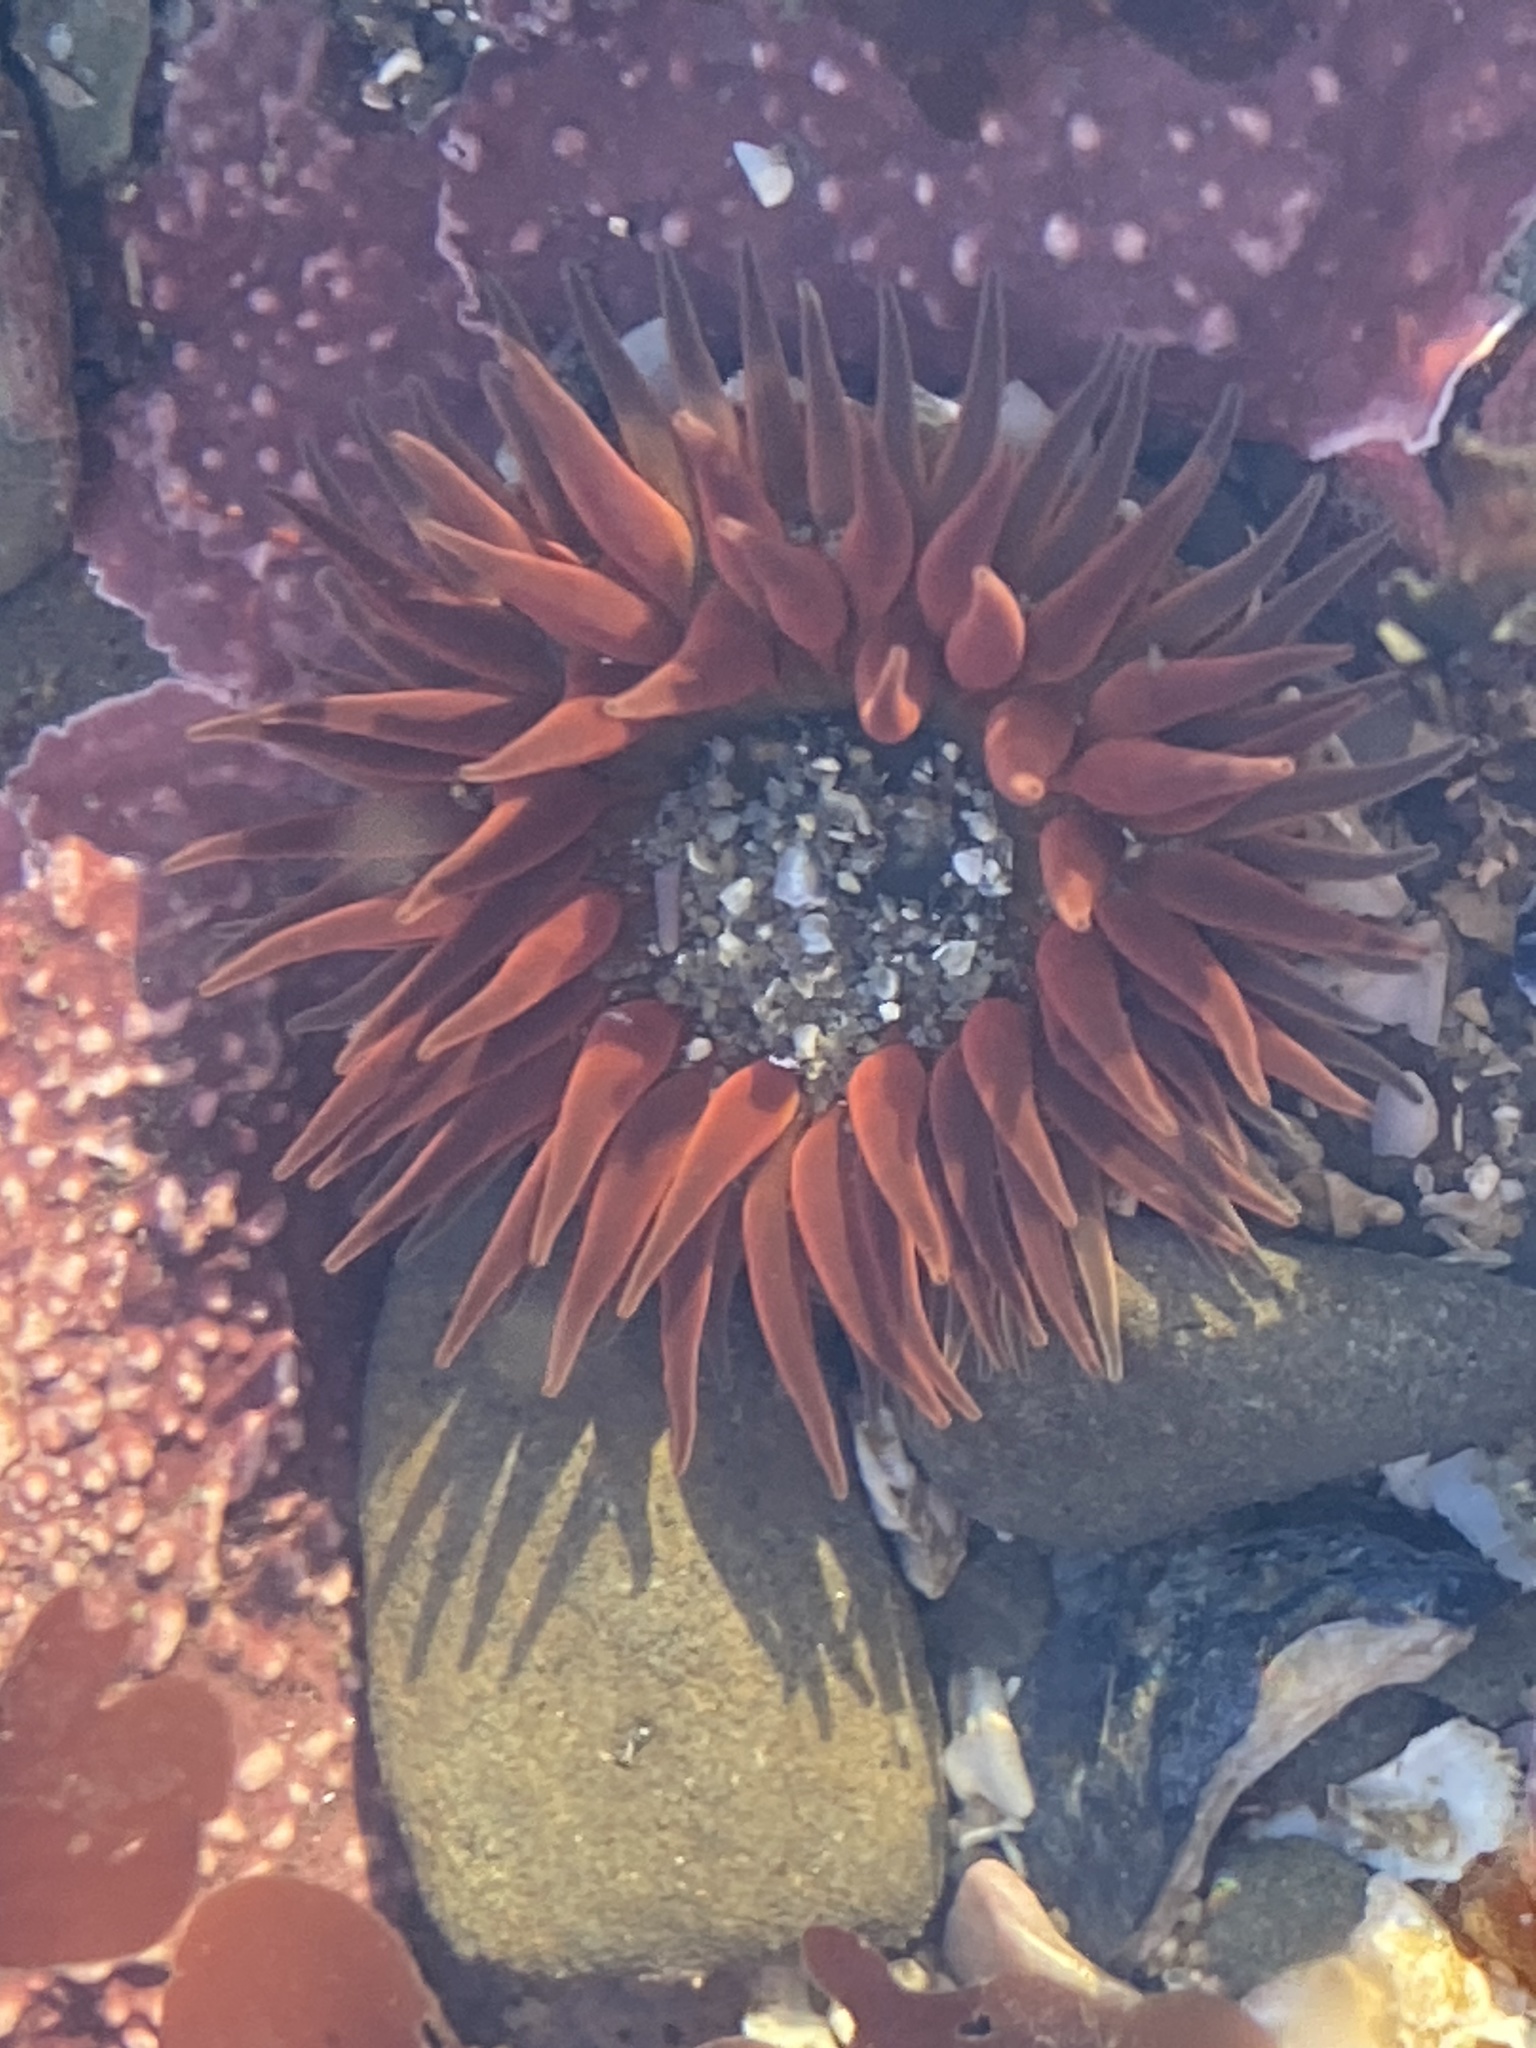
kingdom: Animalia
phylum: Cnidaria
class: Anthozoa
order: Actiniaria
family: Actiniidae
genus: Anthopleura
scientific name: Anthopleura artemisia
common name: Buried sea anemone
